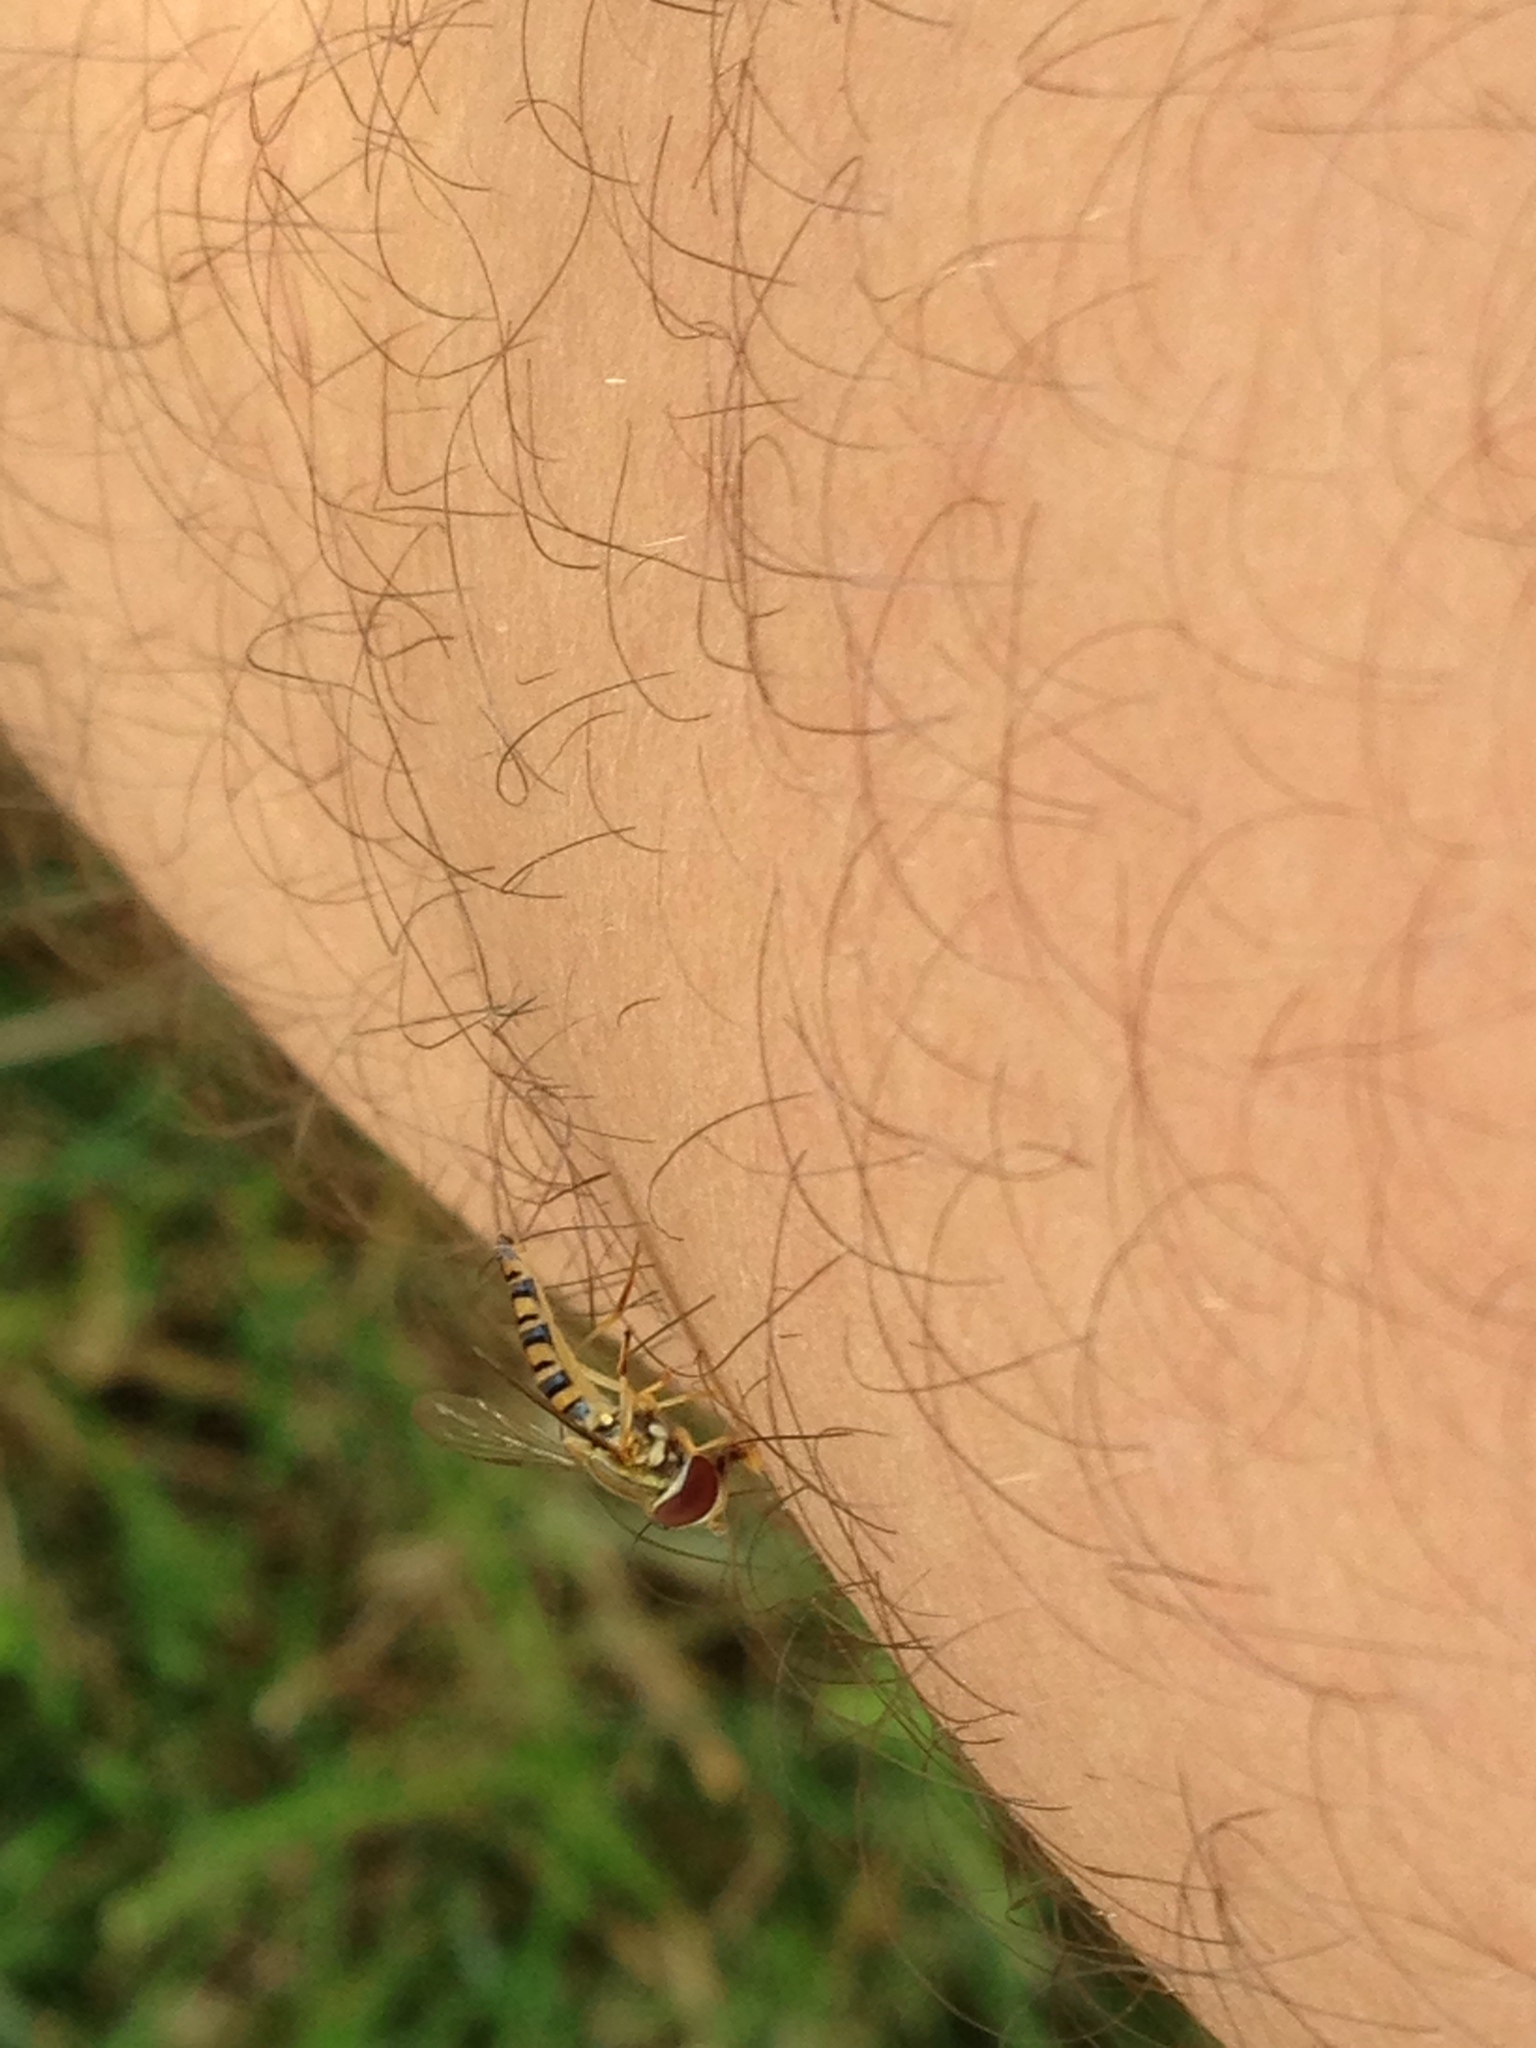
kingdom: Animalia
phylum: Arthropoda
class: Insecta
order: Diptera
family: Syrphidae
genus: Toxomerus
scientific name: Toxomerus politus
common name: Maize calligrapher
